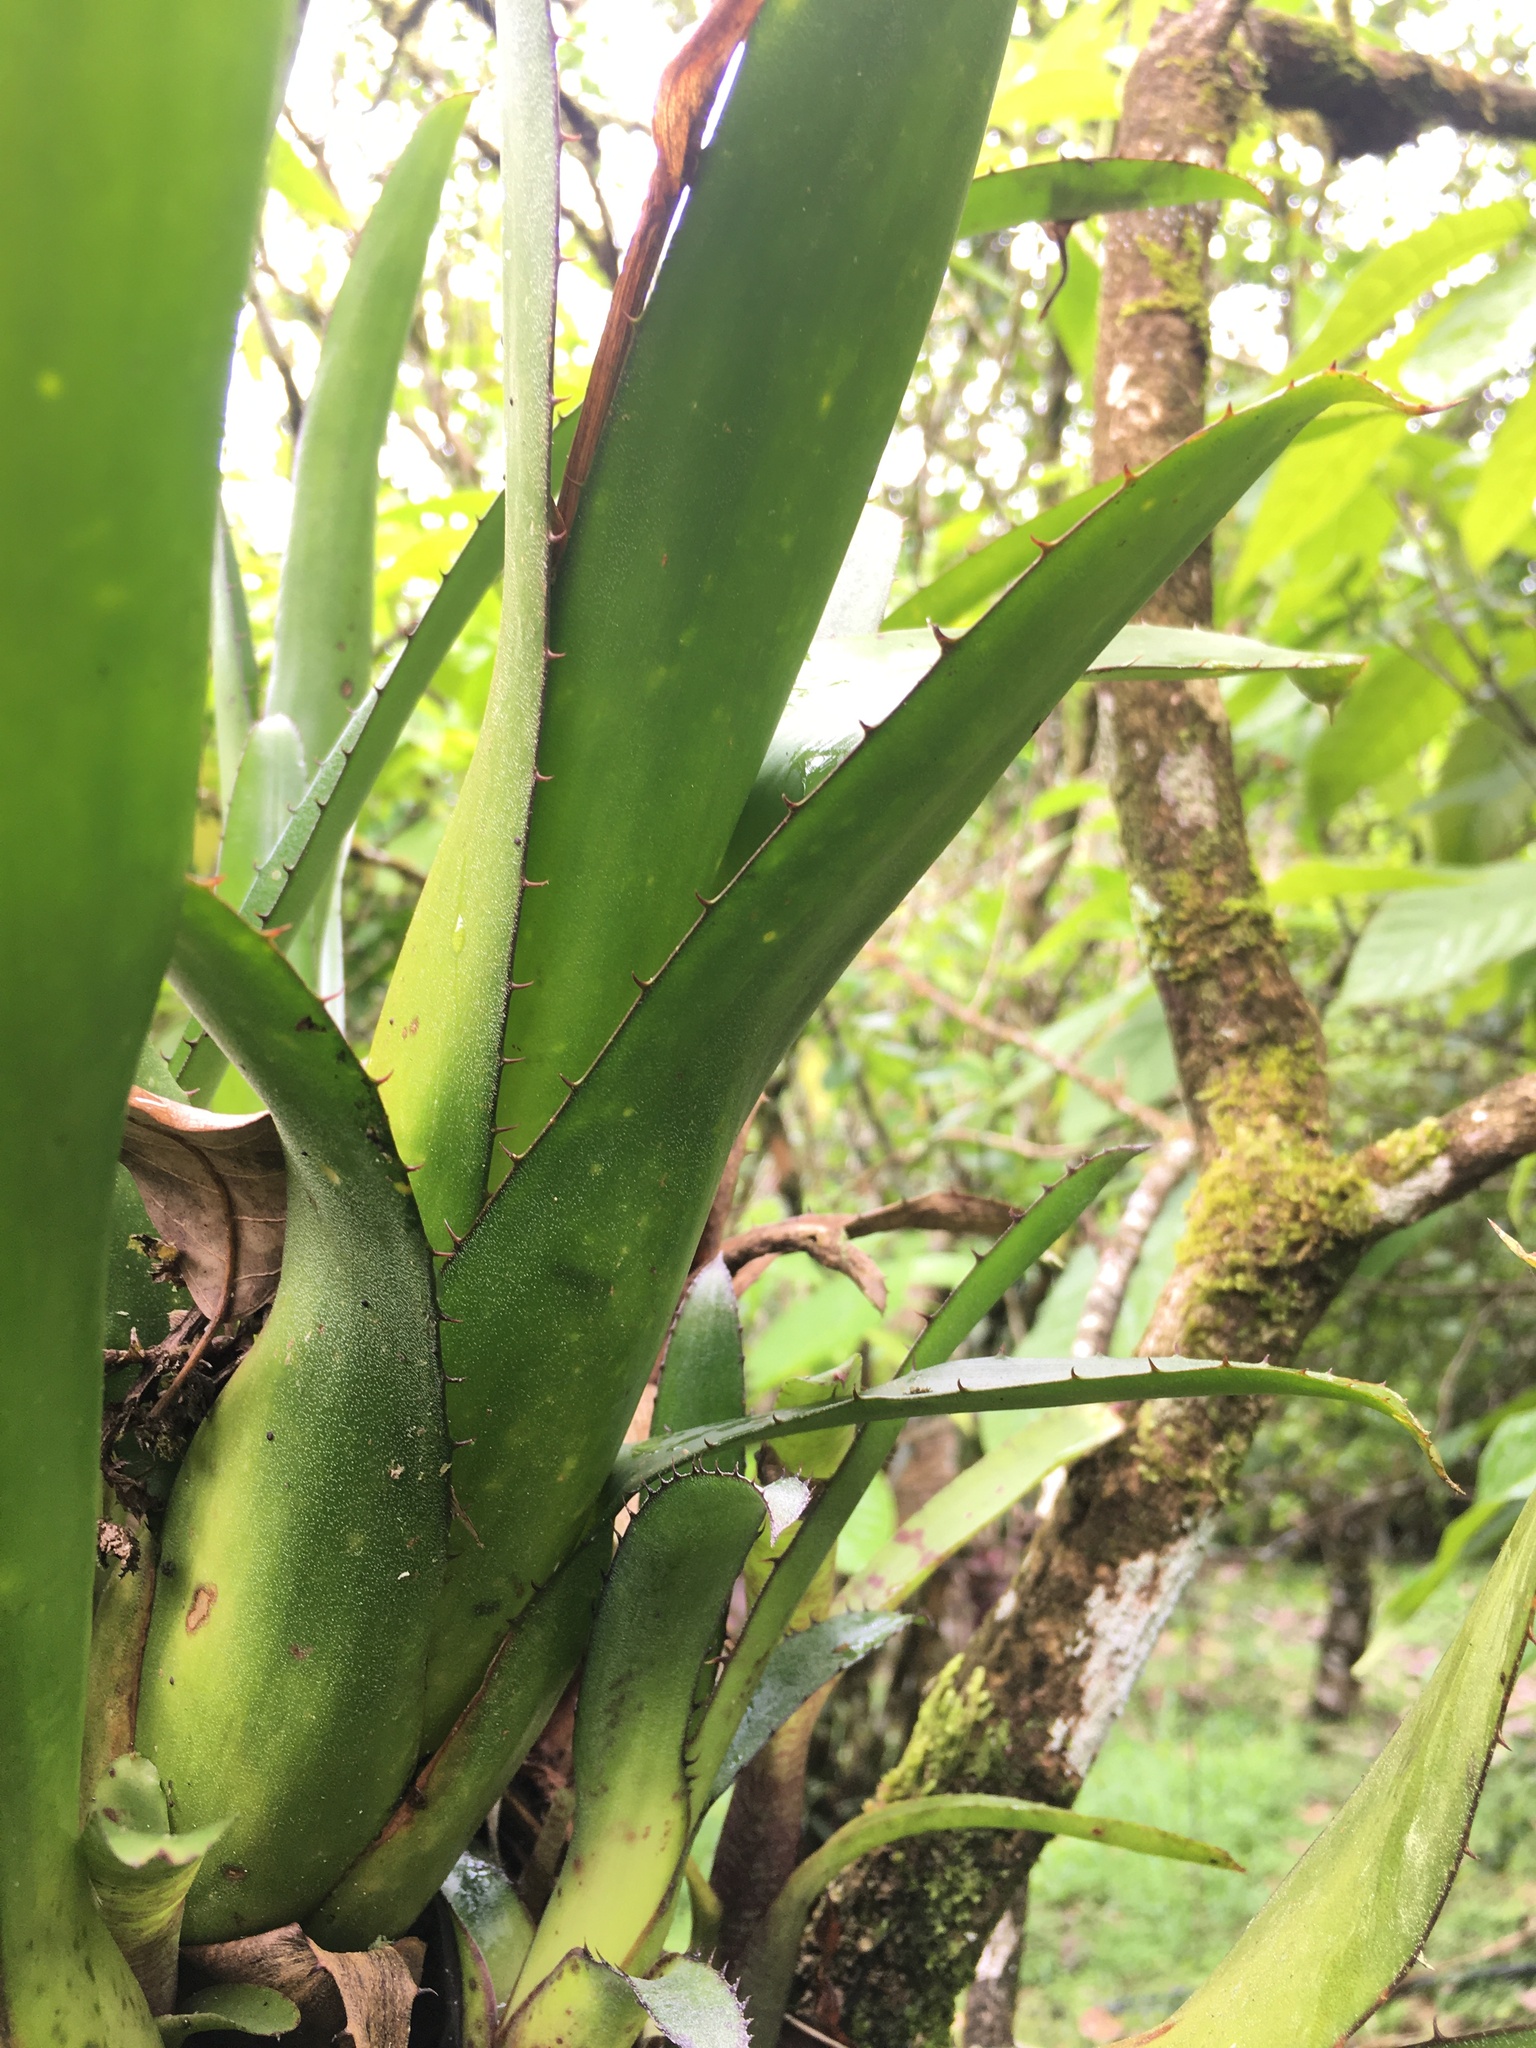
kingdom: Plantae
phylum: Tracheophyta
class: Liliopsida
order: Poales
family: Bromeliaceae
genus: Aechmea
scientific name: Aechmea mertensii
